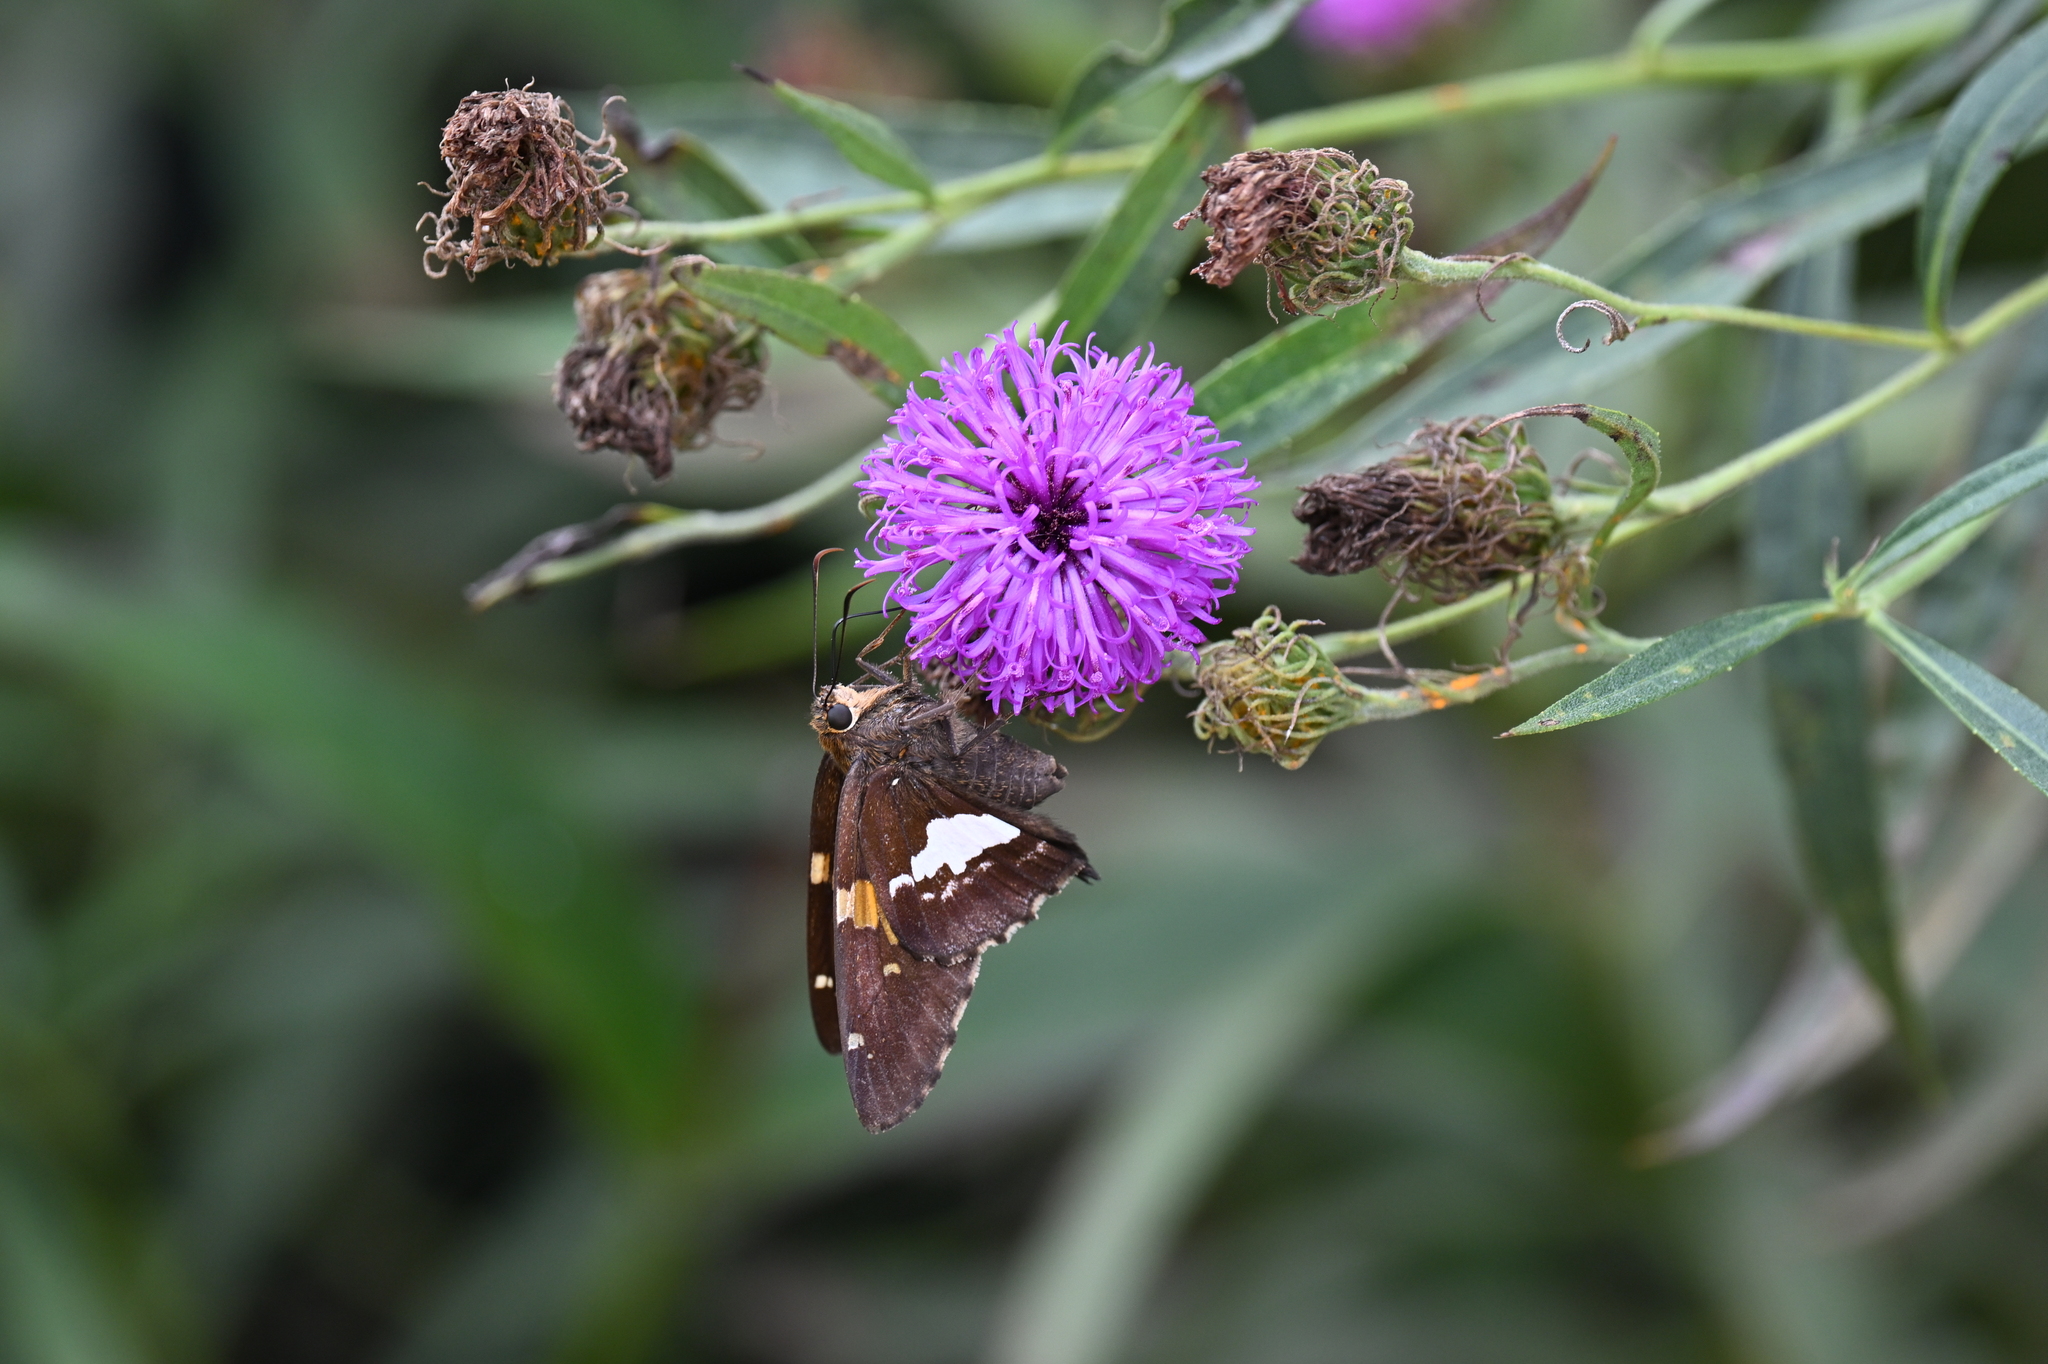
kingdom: Animalia
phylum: Arthropoda
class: Insecta
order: Lepidoptera
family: Hesperiidae
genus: Epargyreus
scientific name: Epargyreus clarus
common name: Silver-spotted skipper
